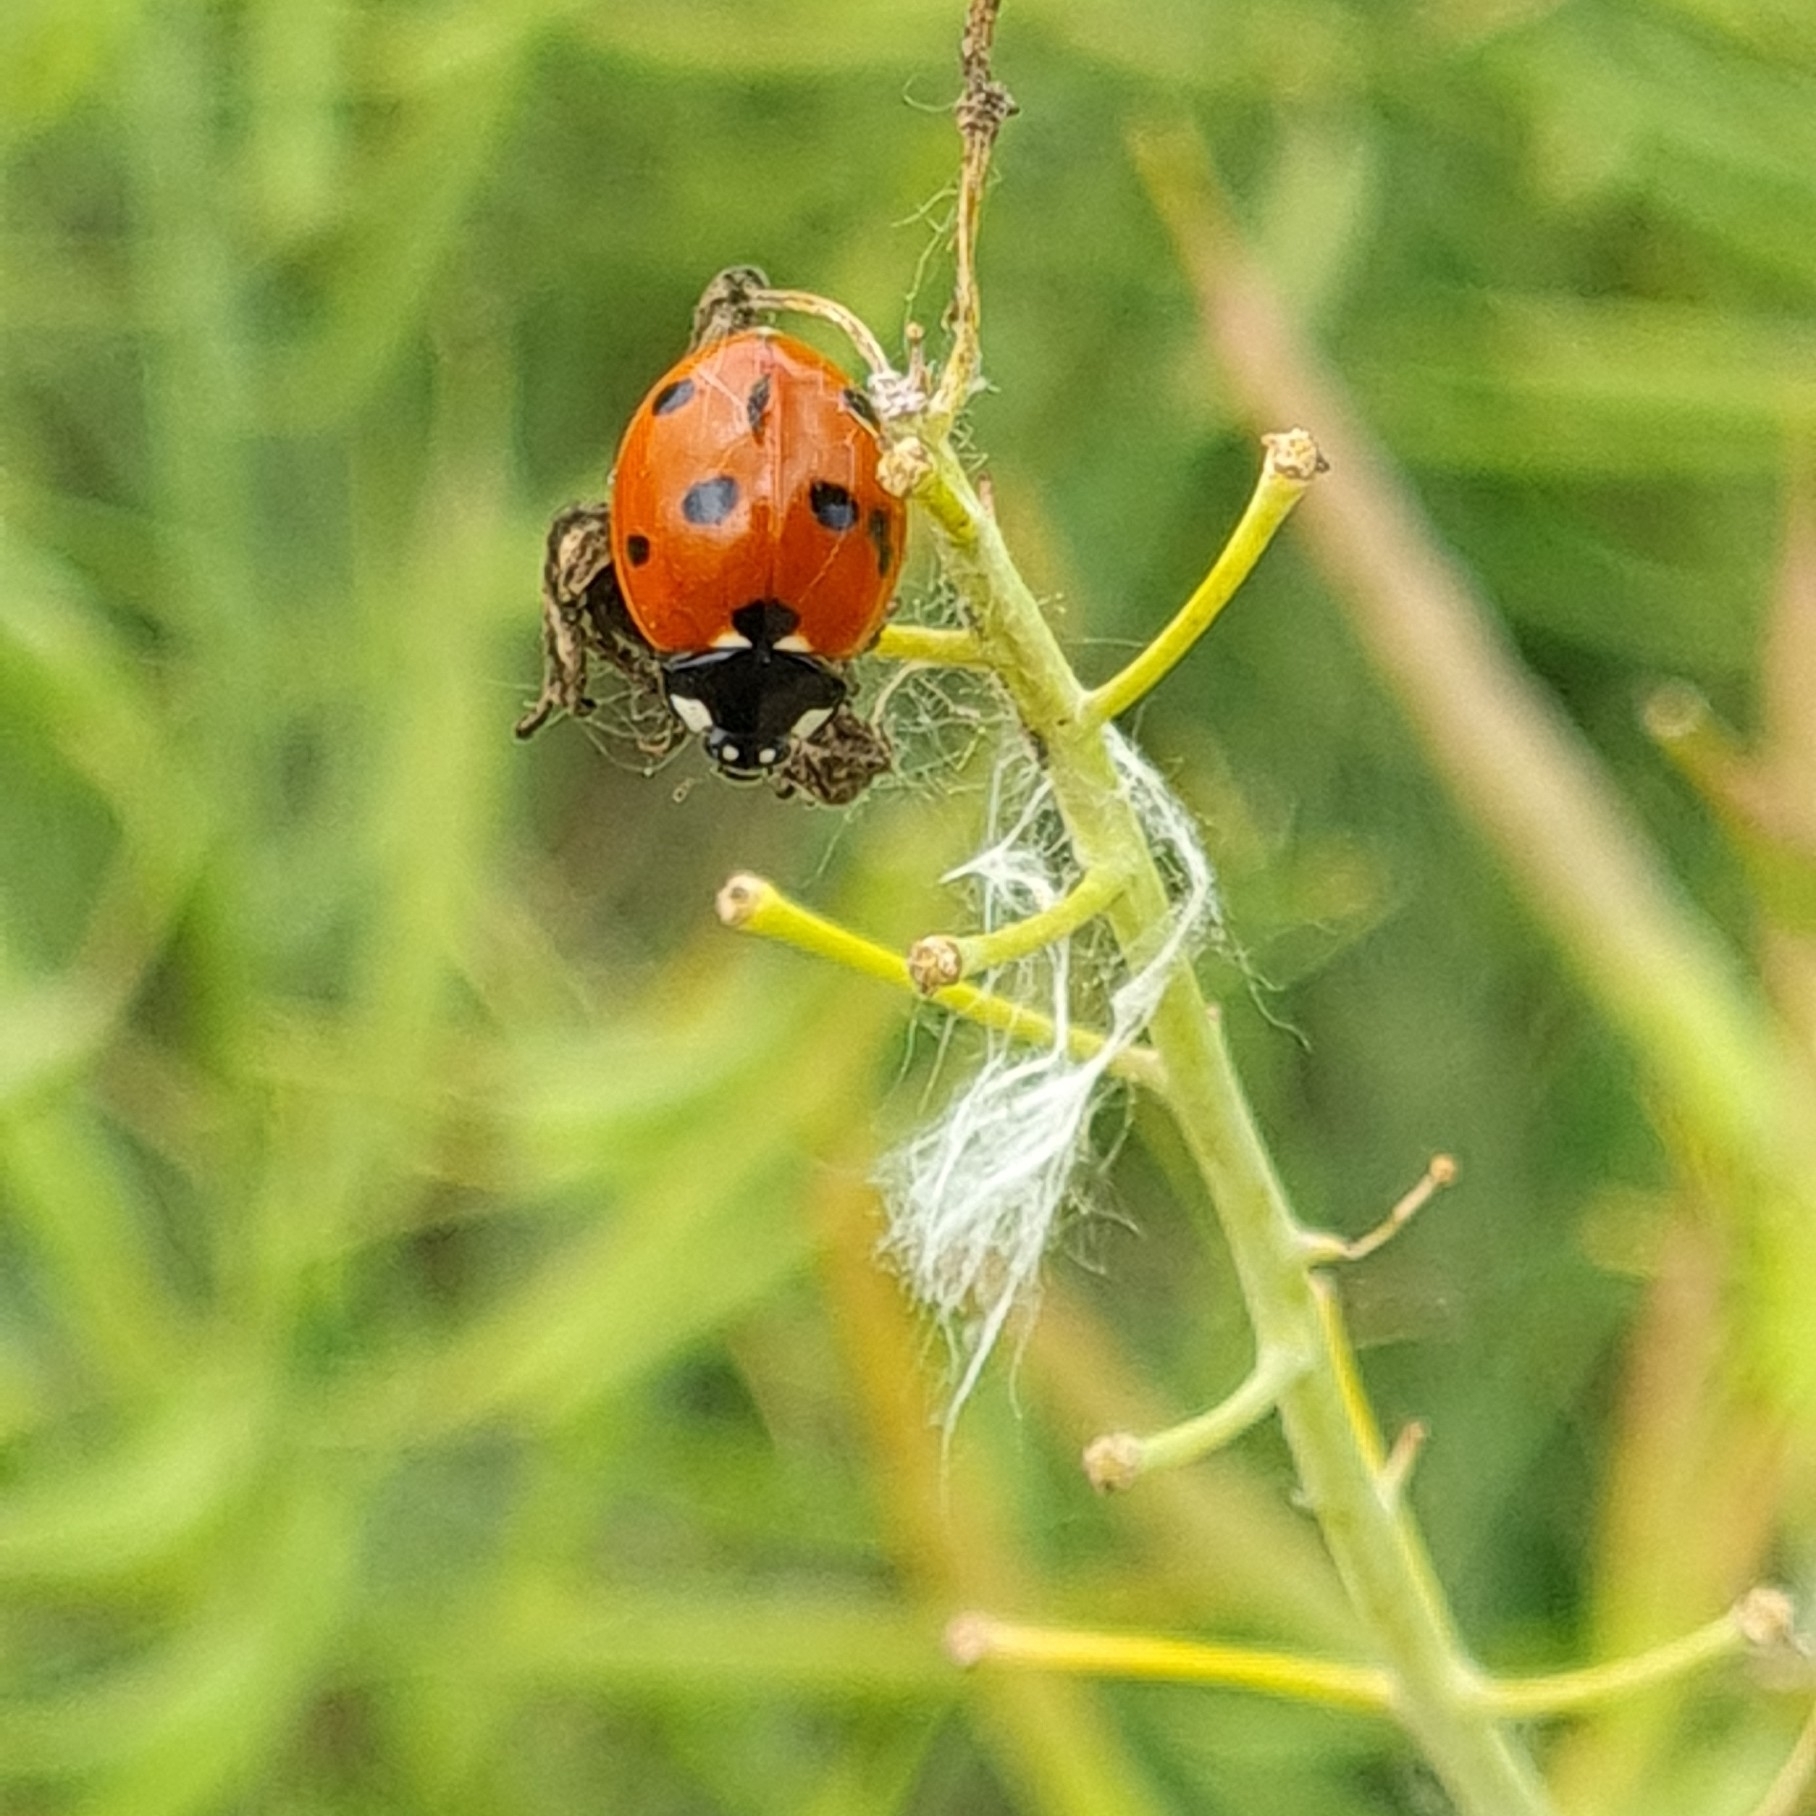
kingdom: Animalia
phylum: Arthropoda
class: Insecta
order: Coleoptera
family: Coccinellidae
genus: Coccinella
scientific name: Coccinella septempunctata
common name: Sevenspotted lady beetle
